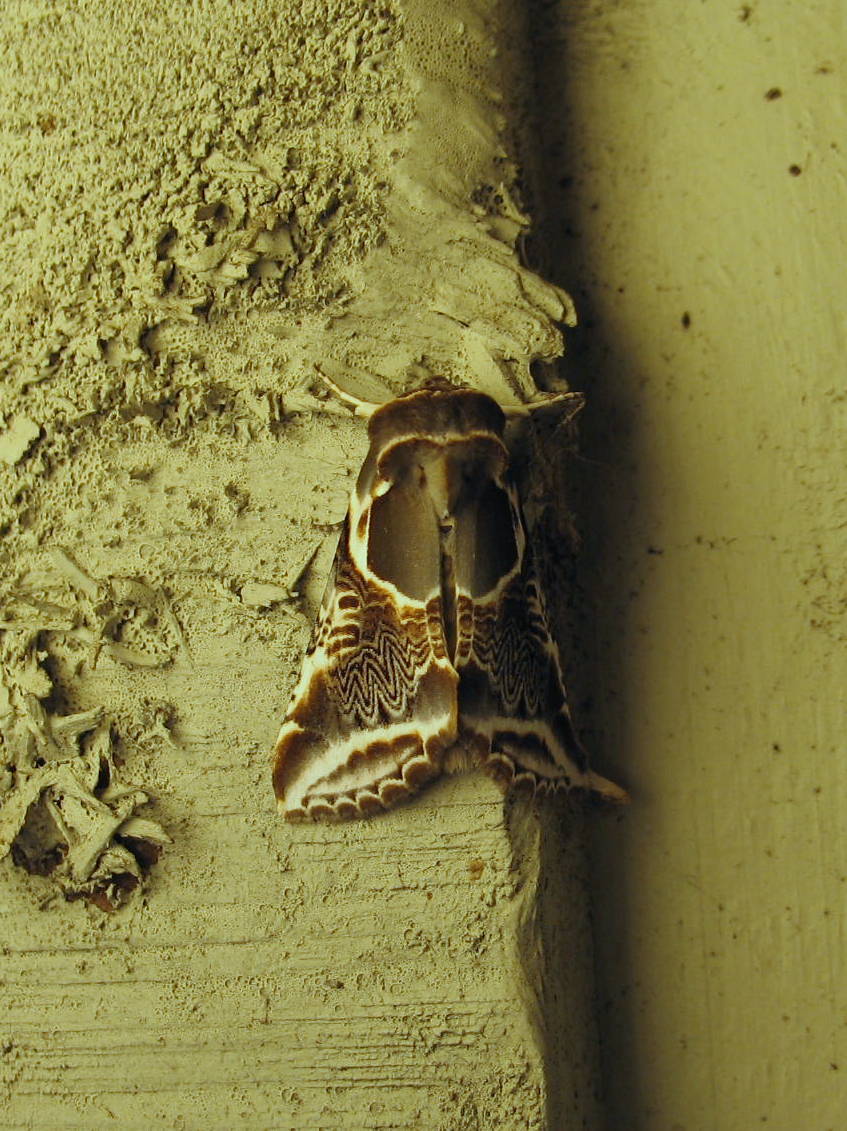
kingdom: Animalia
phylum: Arthropoda
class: Insecta
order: Lepidoptera
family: Drepanidae
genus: Habrosyne
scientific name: Habrosyne scripta
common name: Lettered habrosyne moth
